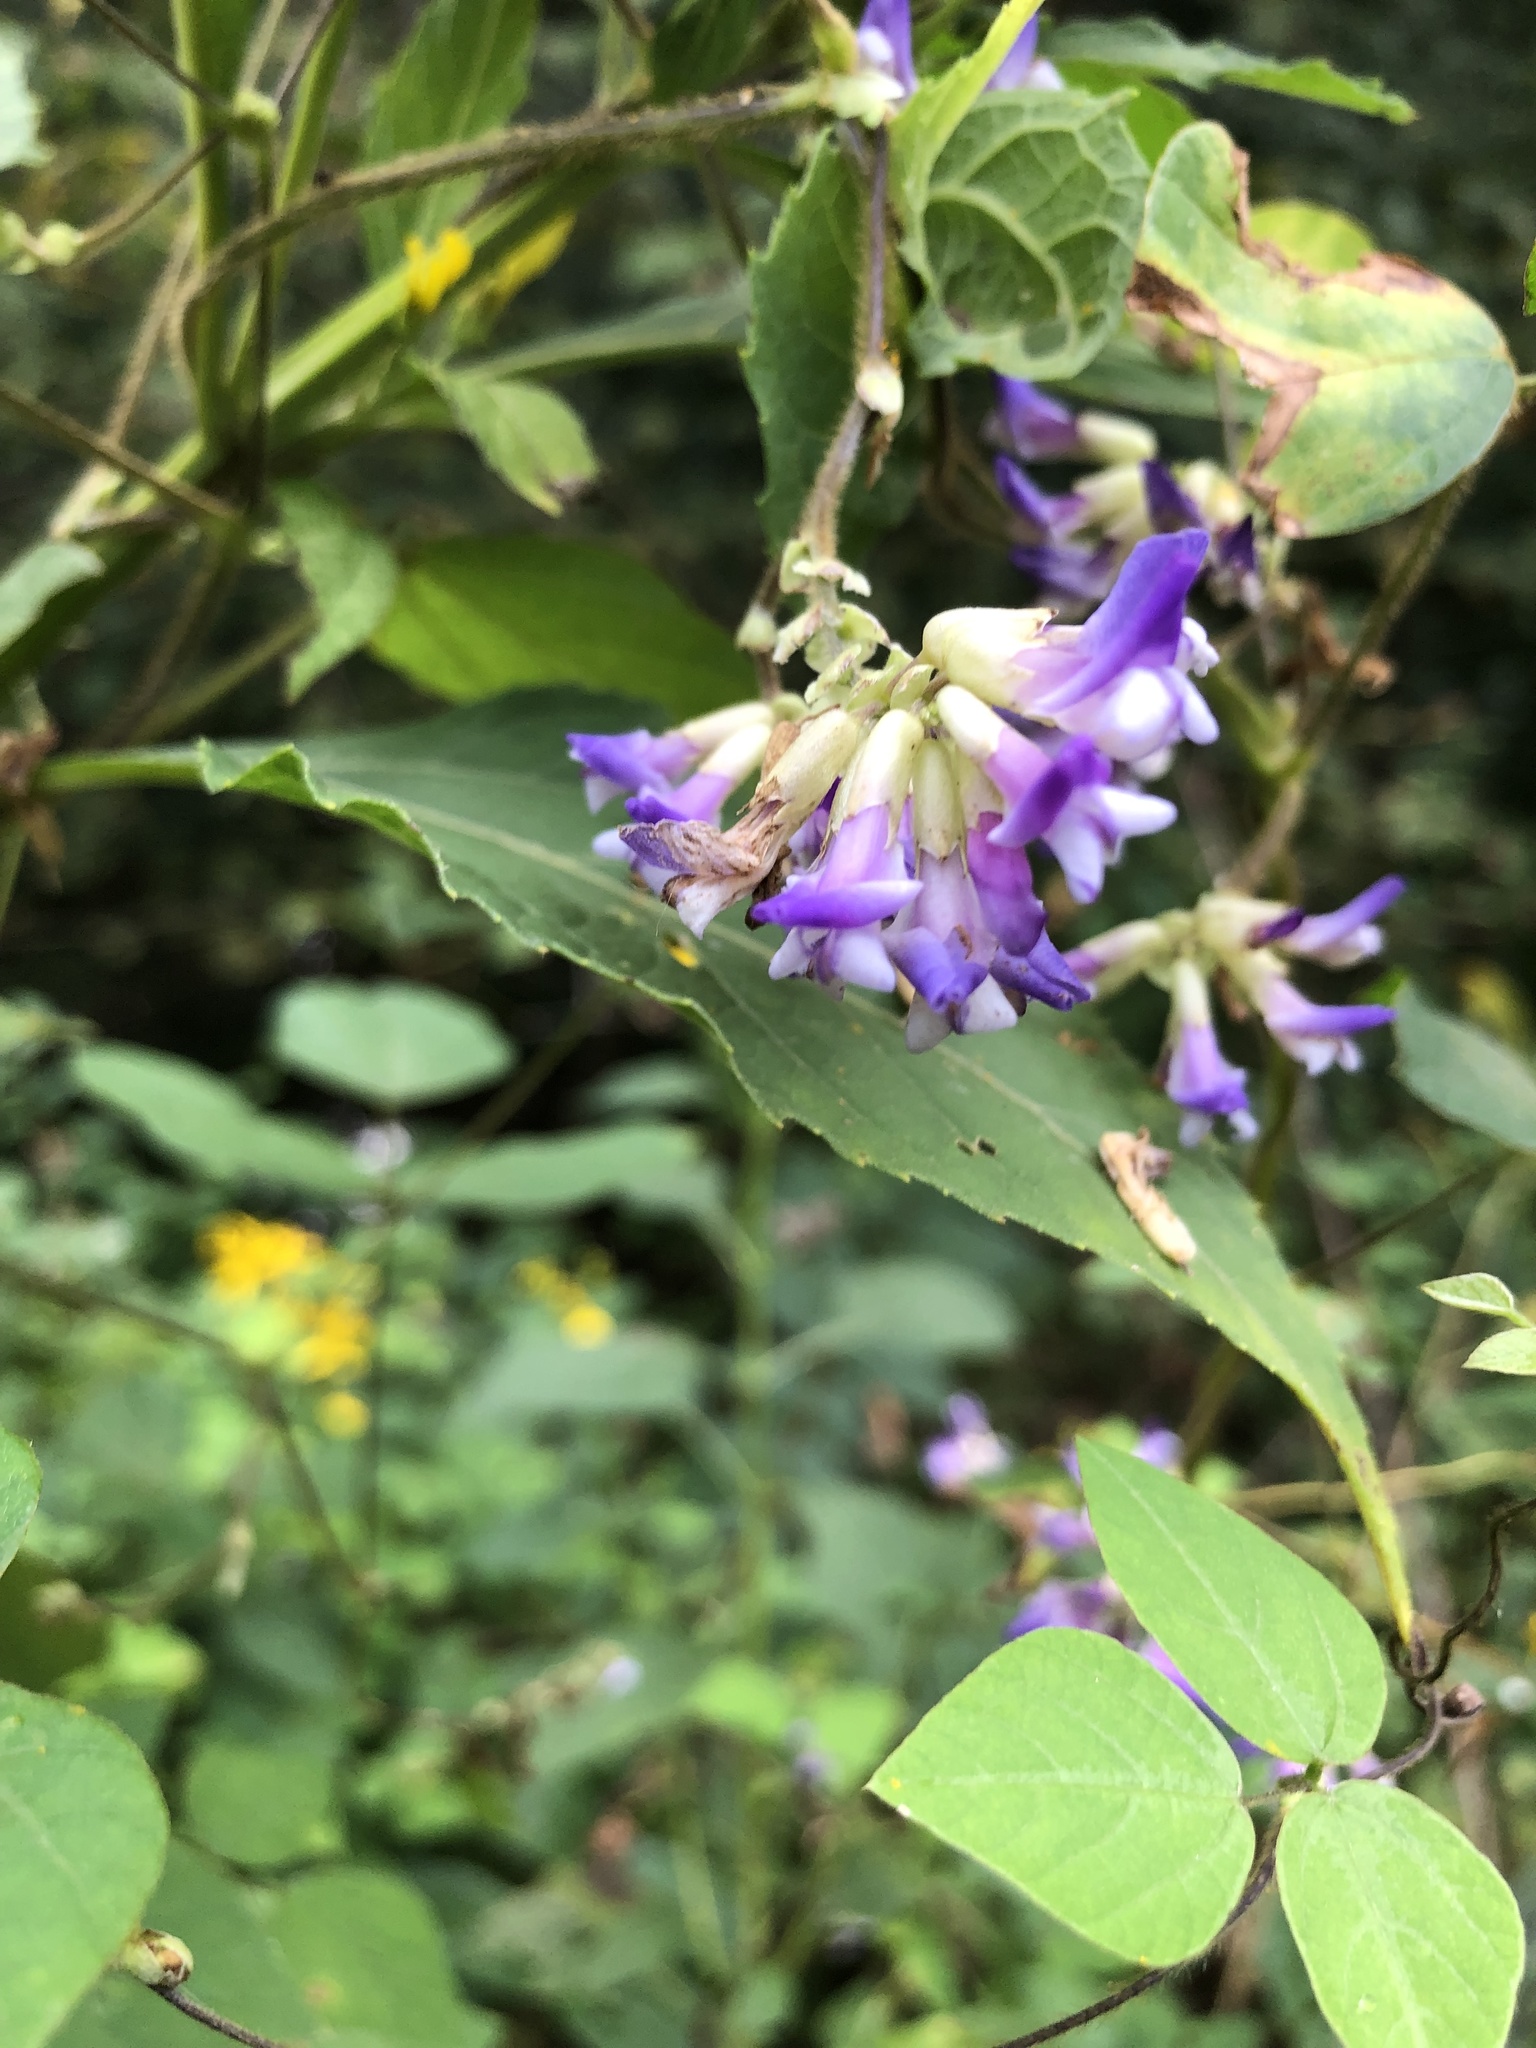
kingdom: Plantae
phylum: Tracheophyta
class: Magnoliopsida
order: Fabales
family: Fabaceae
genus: Amphicarpaea
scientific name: Amphicarpaea bracteata
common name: American hog peanut
